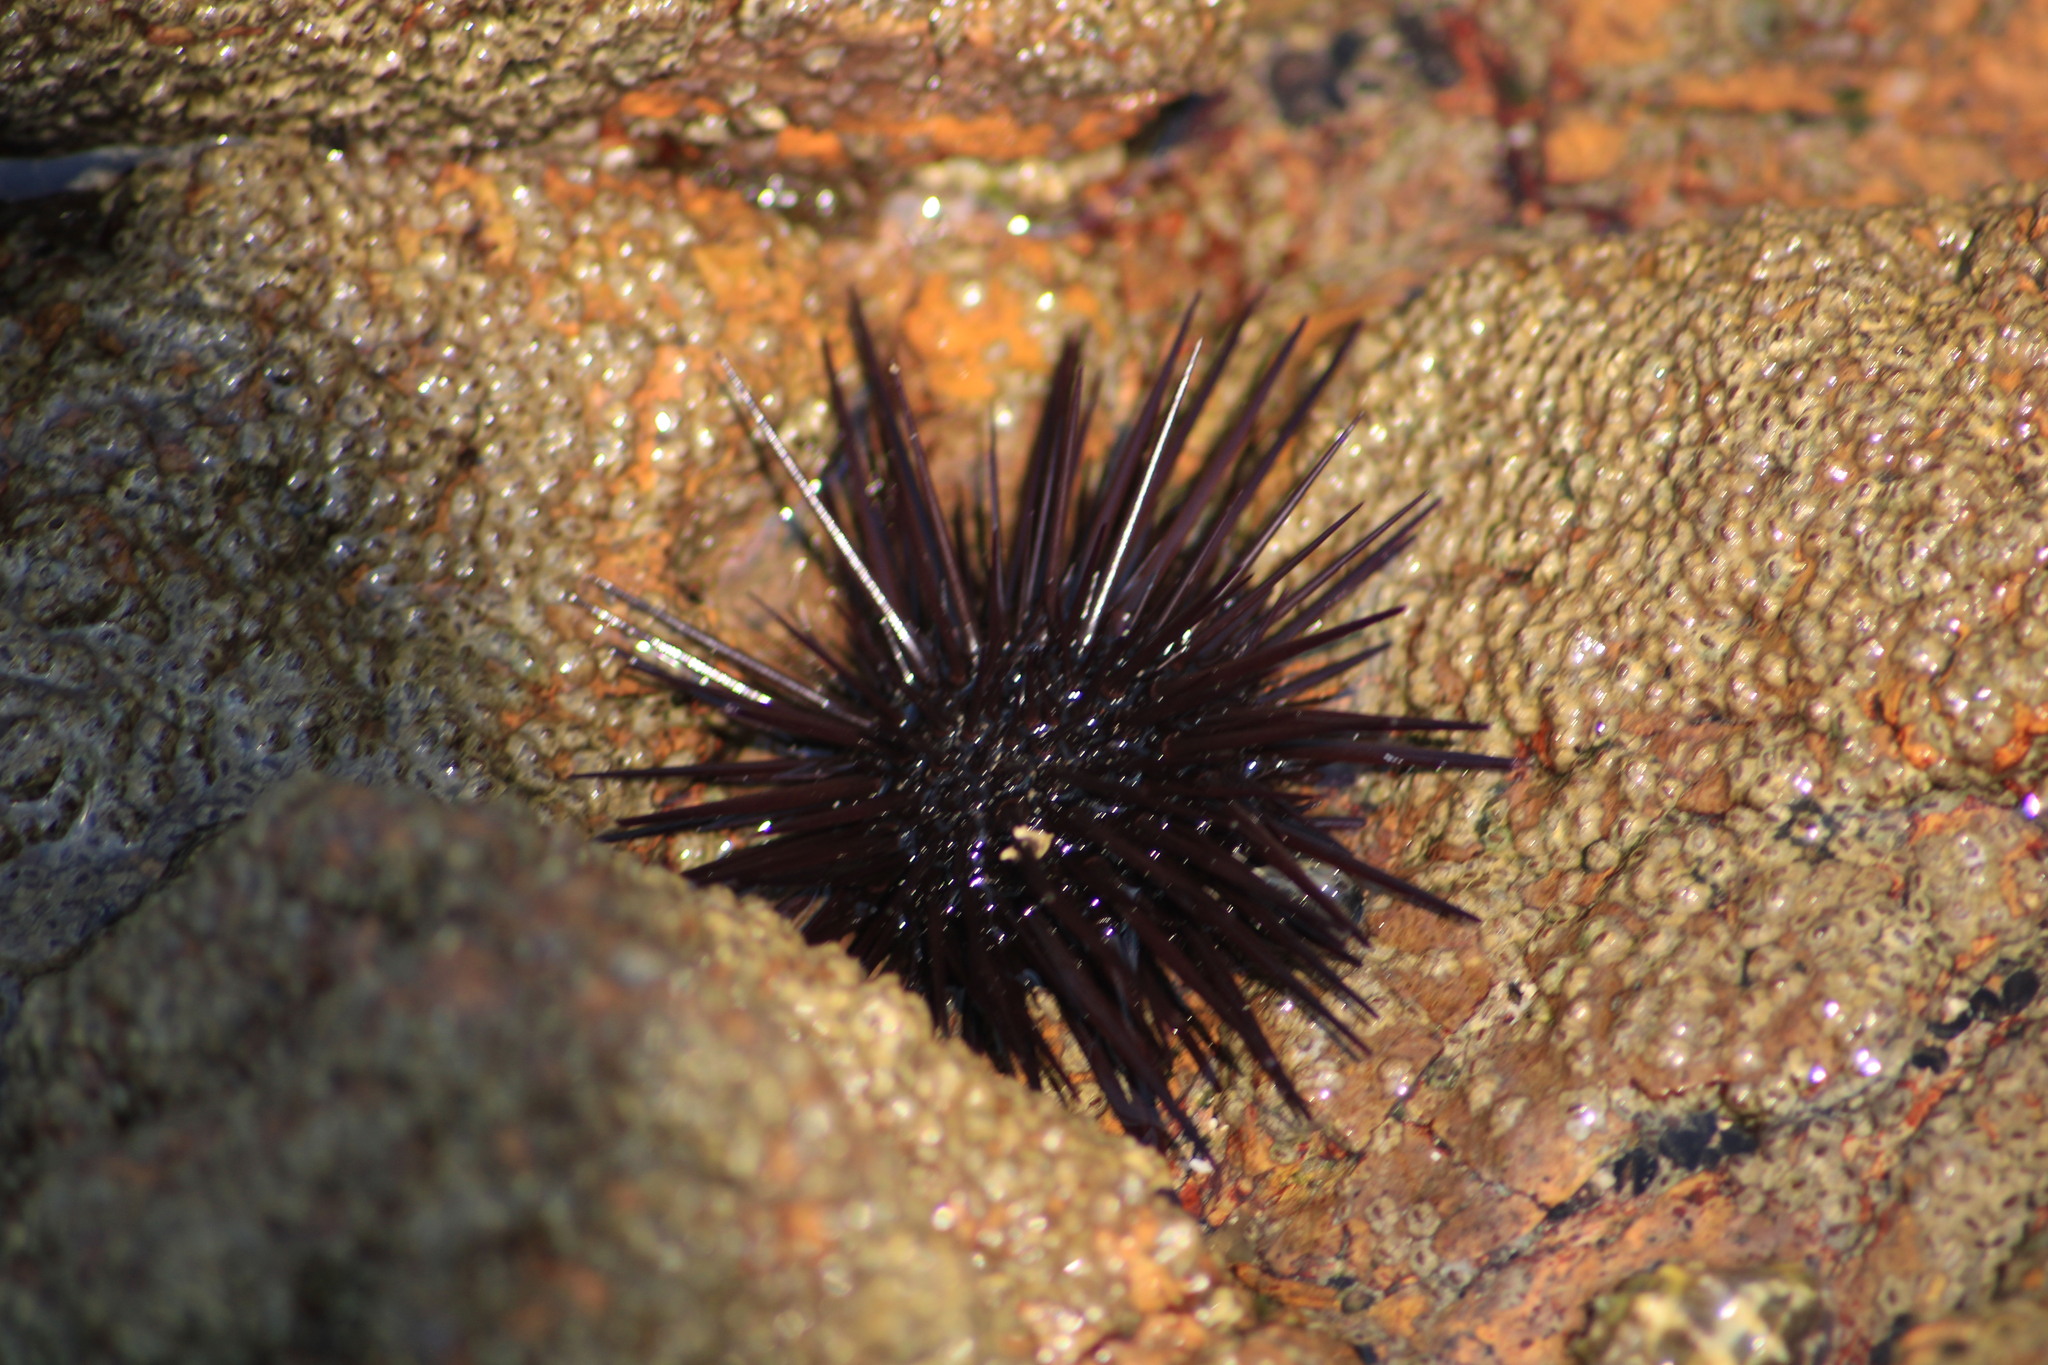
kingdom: Animalia
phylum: Echinodermata
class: Echinoidea
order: Camarodonta
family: Echinometridae
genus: Echinometra
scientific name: Echinometra vanbrunti
